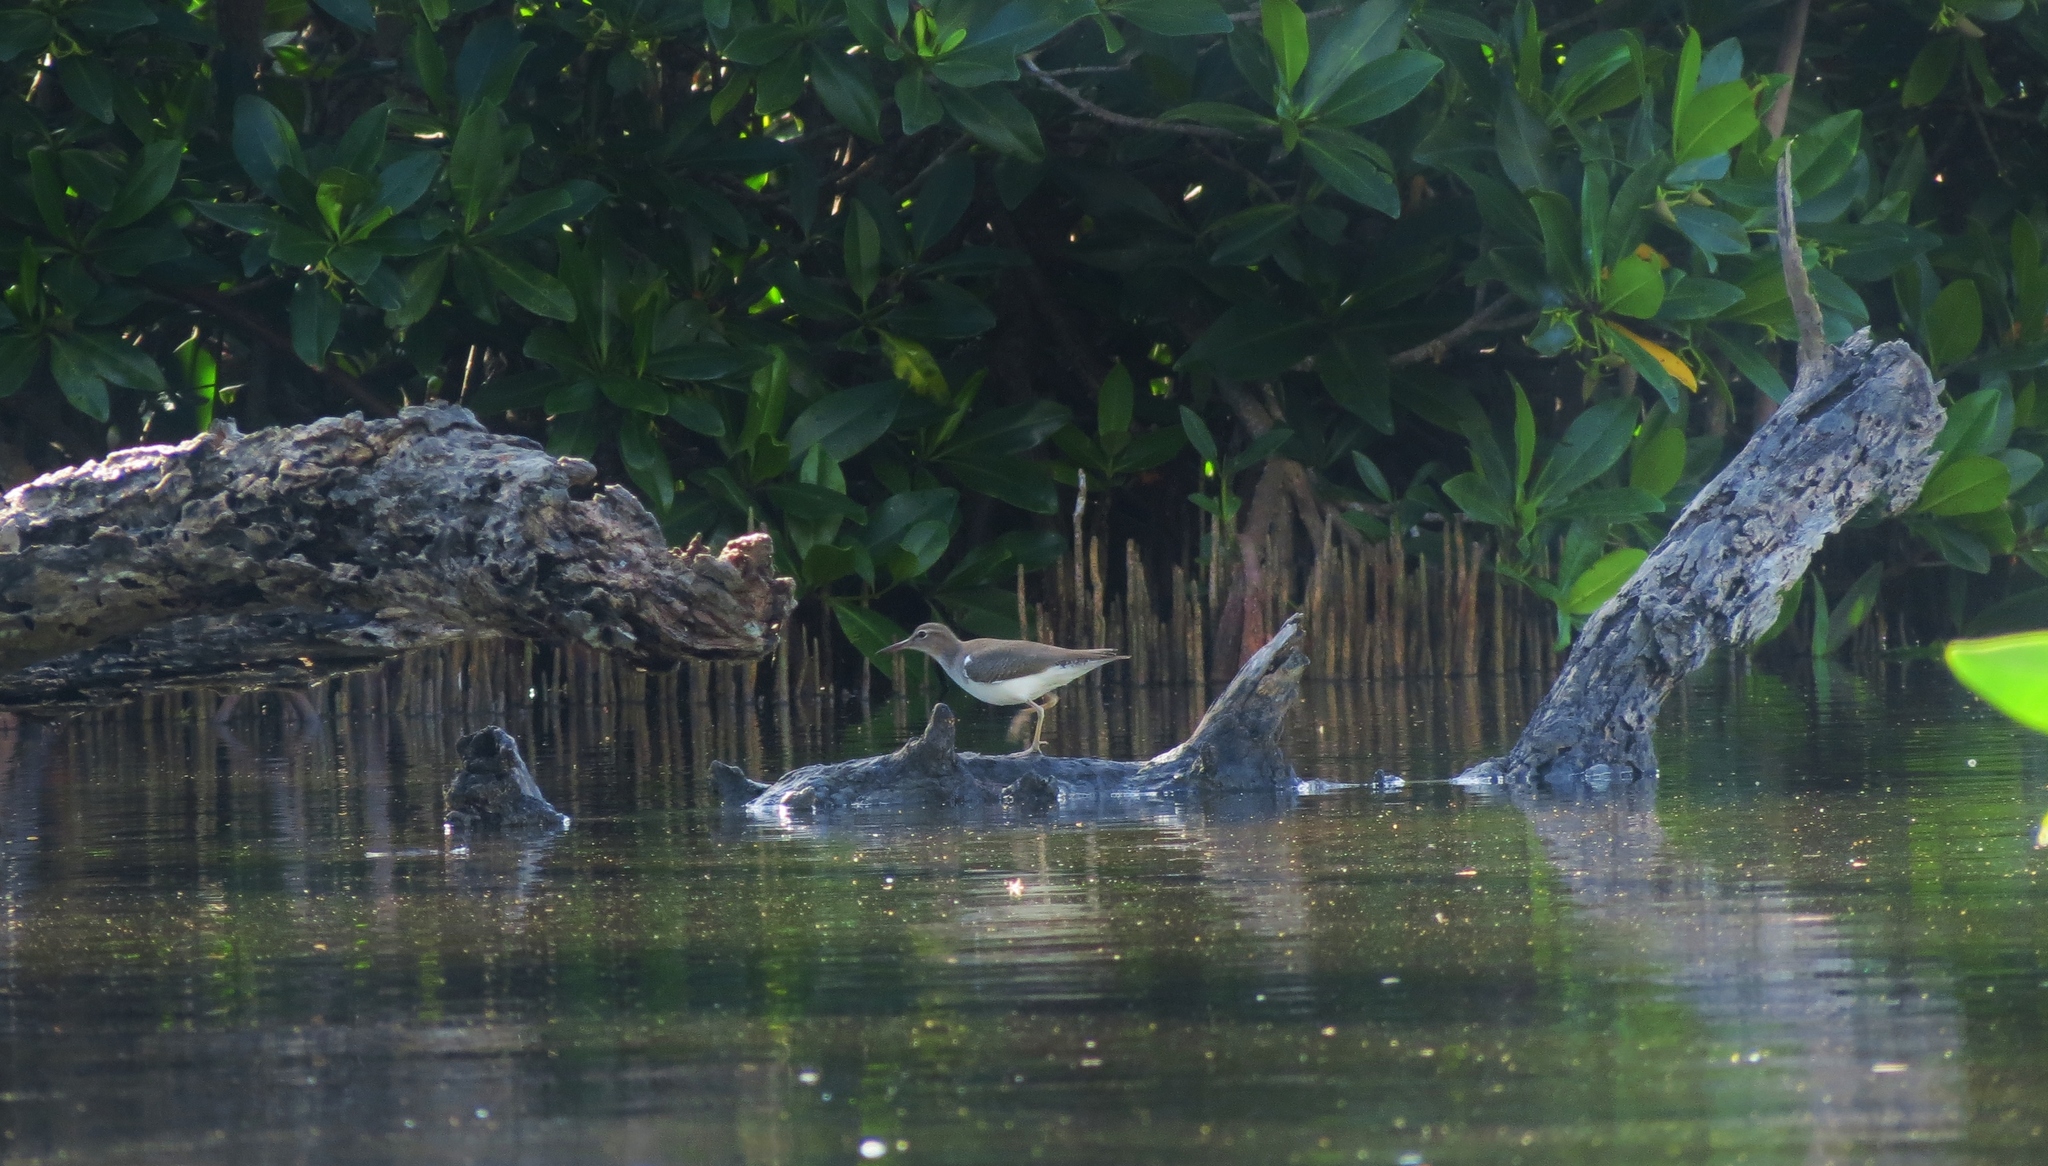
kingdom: Animalia
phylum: Chordata
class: Aves
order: Charadriiformes
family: Scolopacidae
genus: Actitis
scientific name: Actitis macularius
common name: Spotted sandpiper
